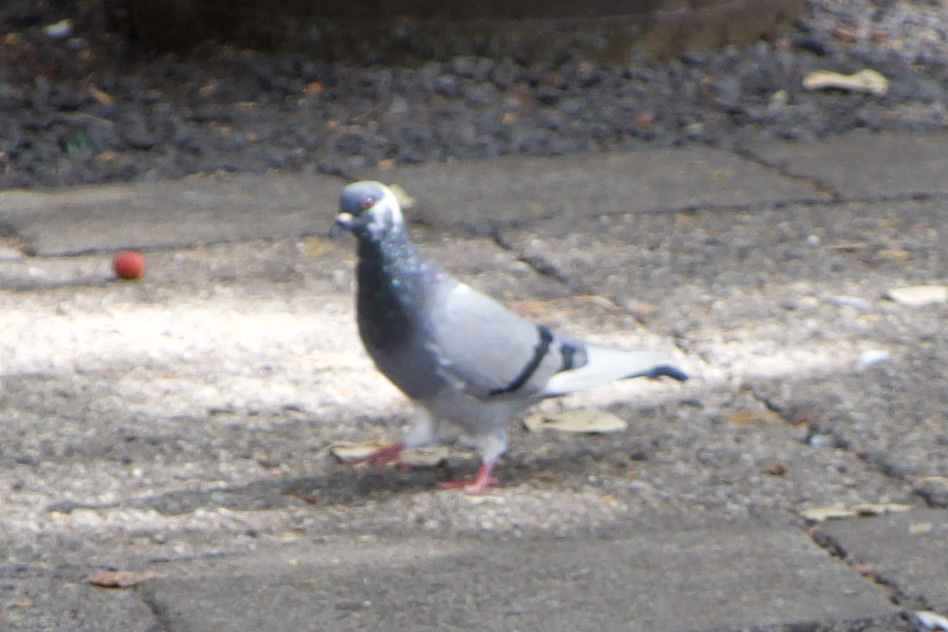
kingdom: Animalia
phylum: Chordata
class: Aves
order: Columbiformes
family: Columbidae
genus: Columba
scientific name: Columba livia
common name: Rock pigeon
